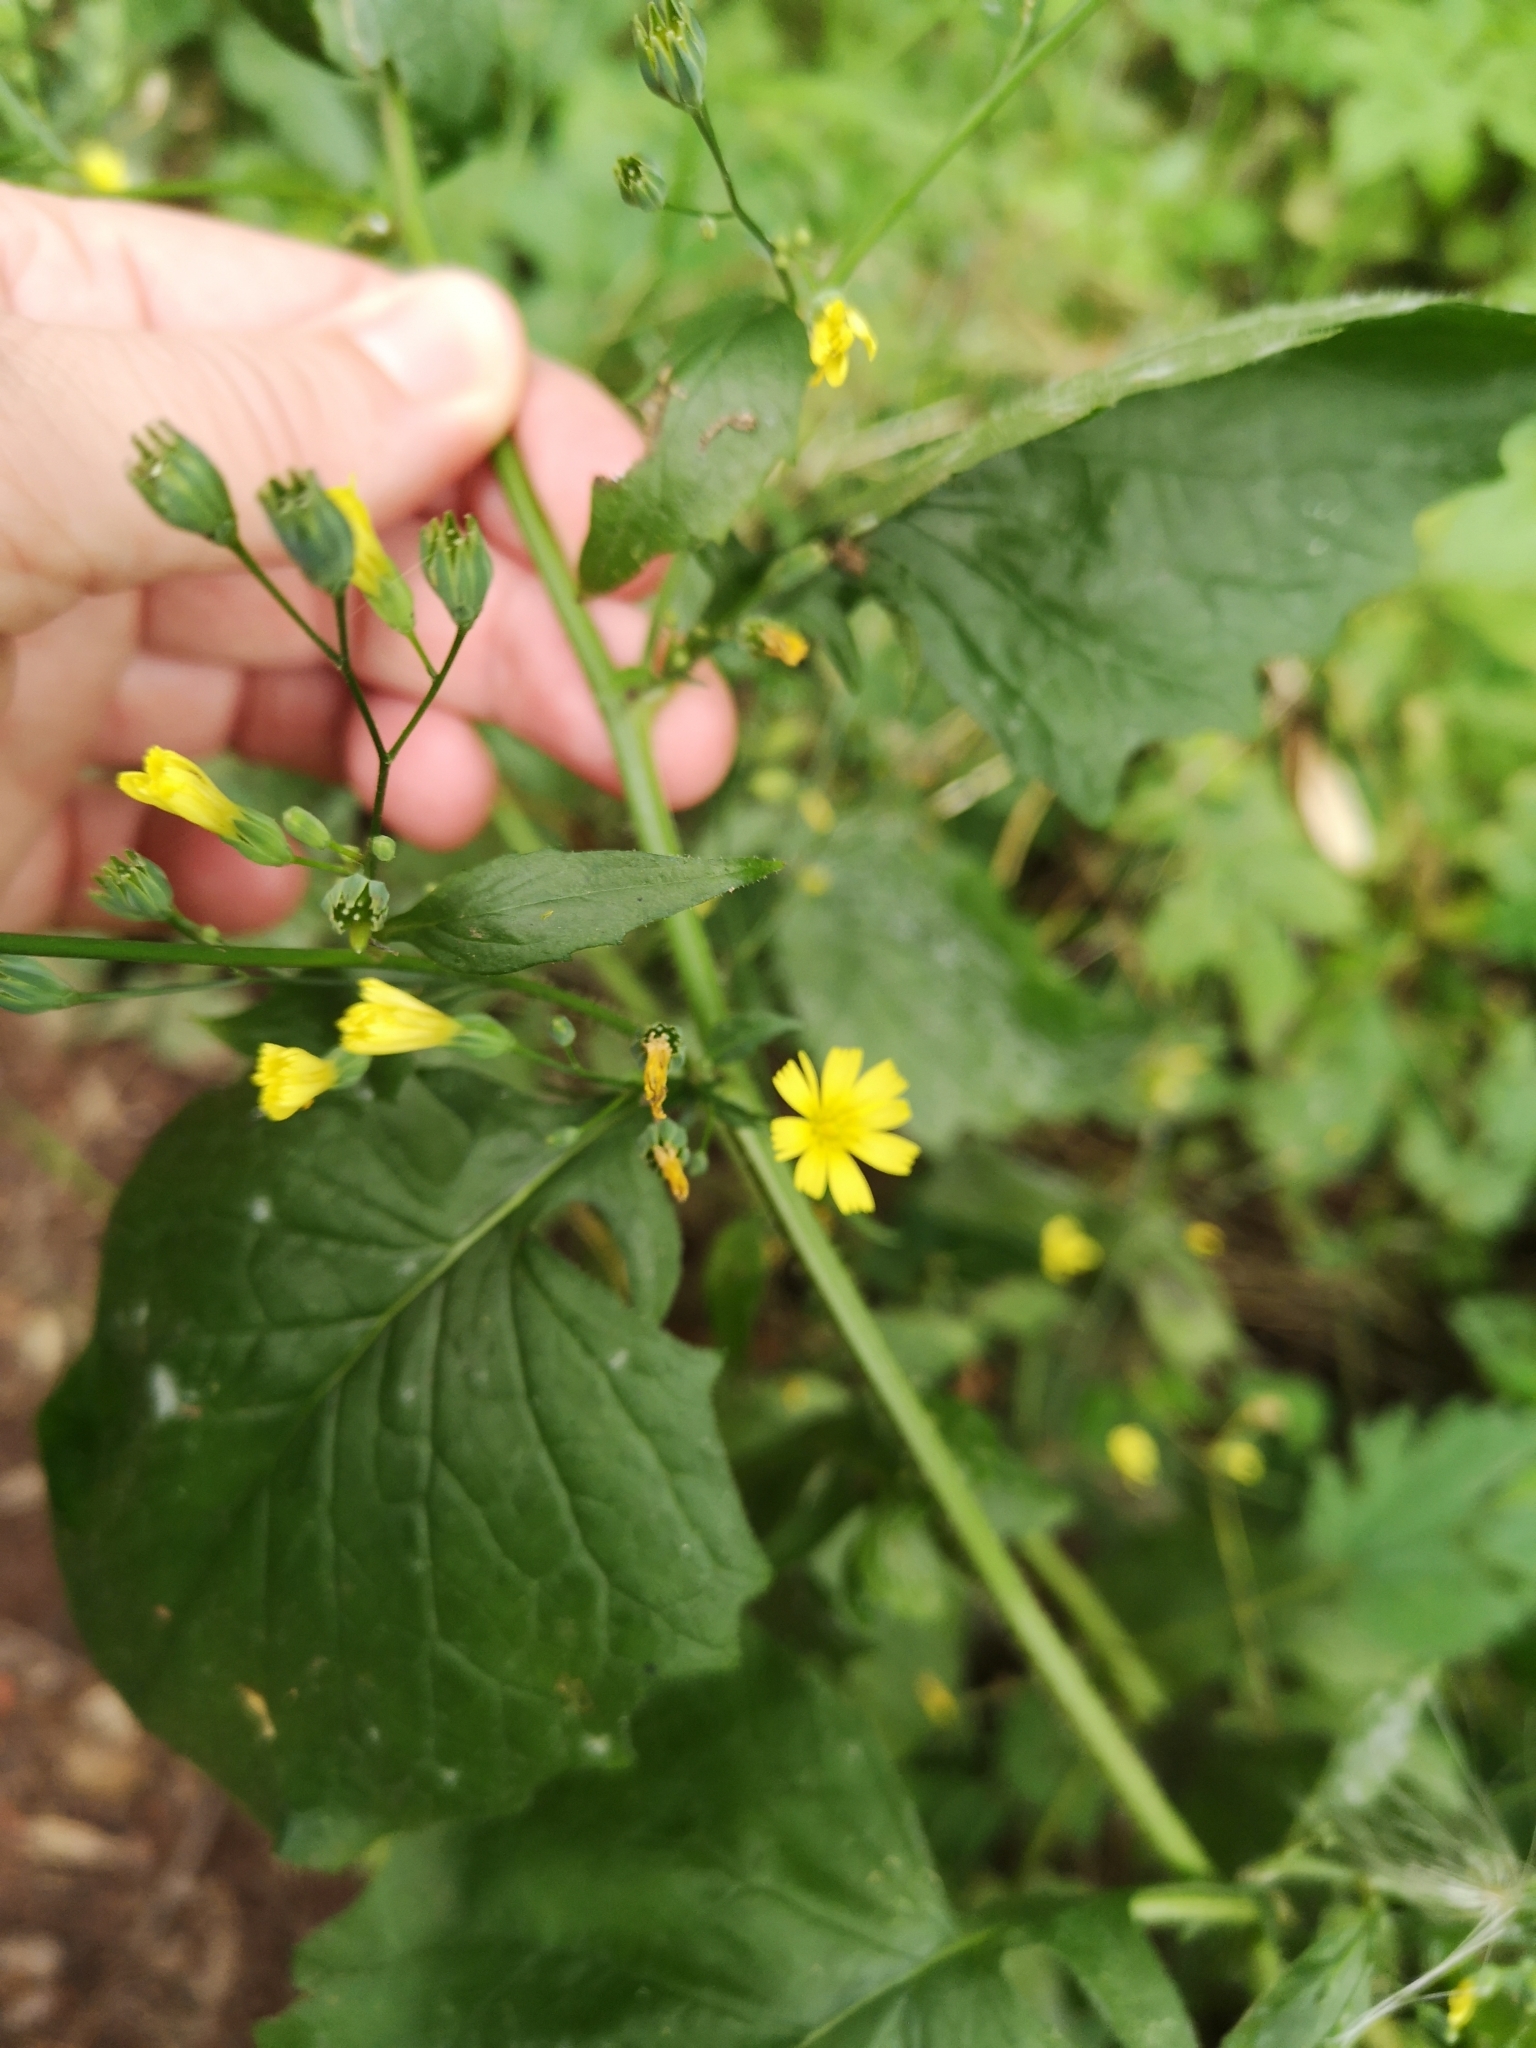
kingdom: Plantae
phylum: Tracheophyta
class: Magnoliopsida
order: Asterales
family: Asteraceae
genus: Lapsana
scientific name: Lapsana communis
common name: Nipplewort
